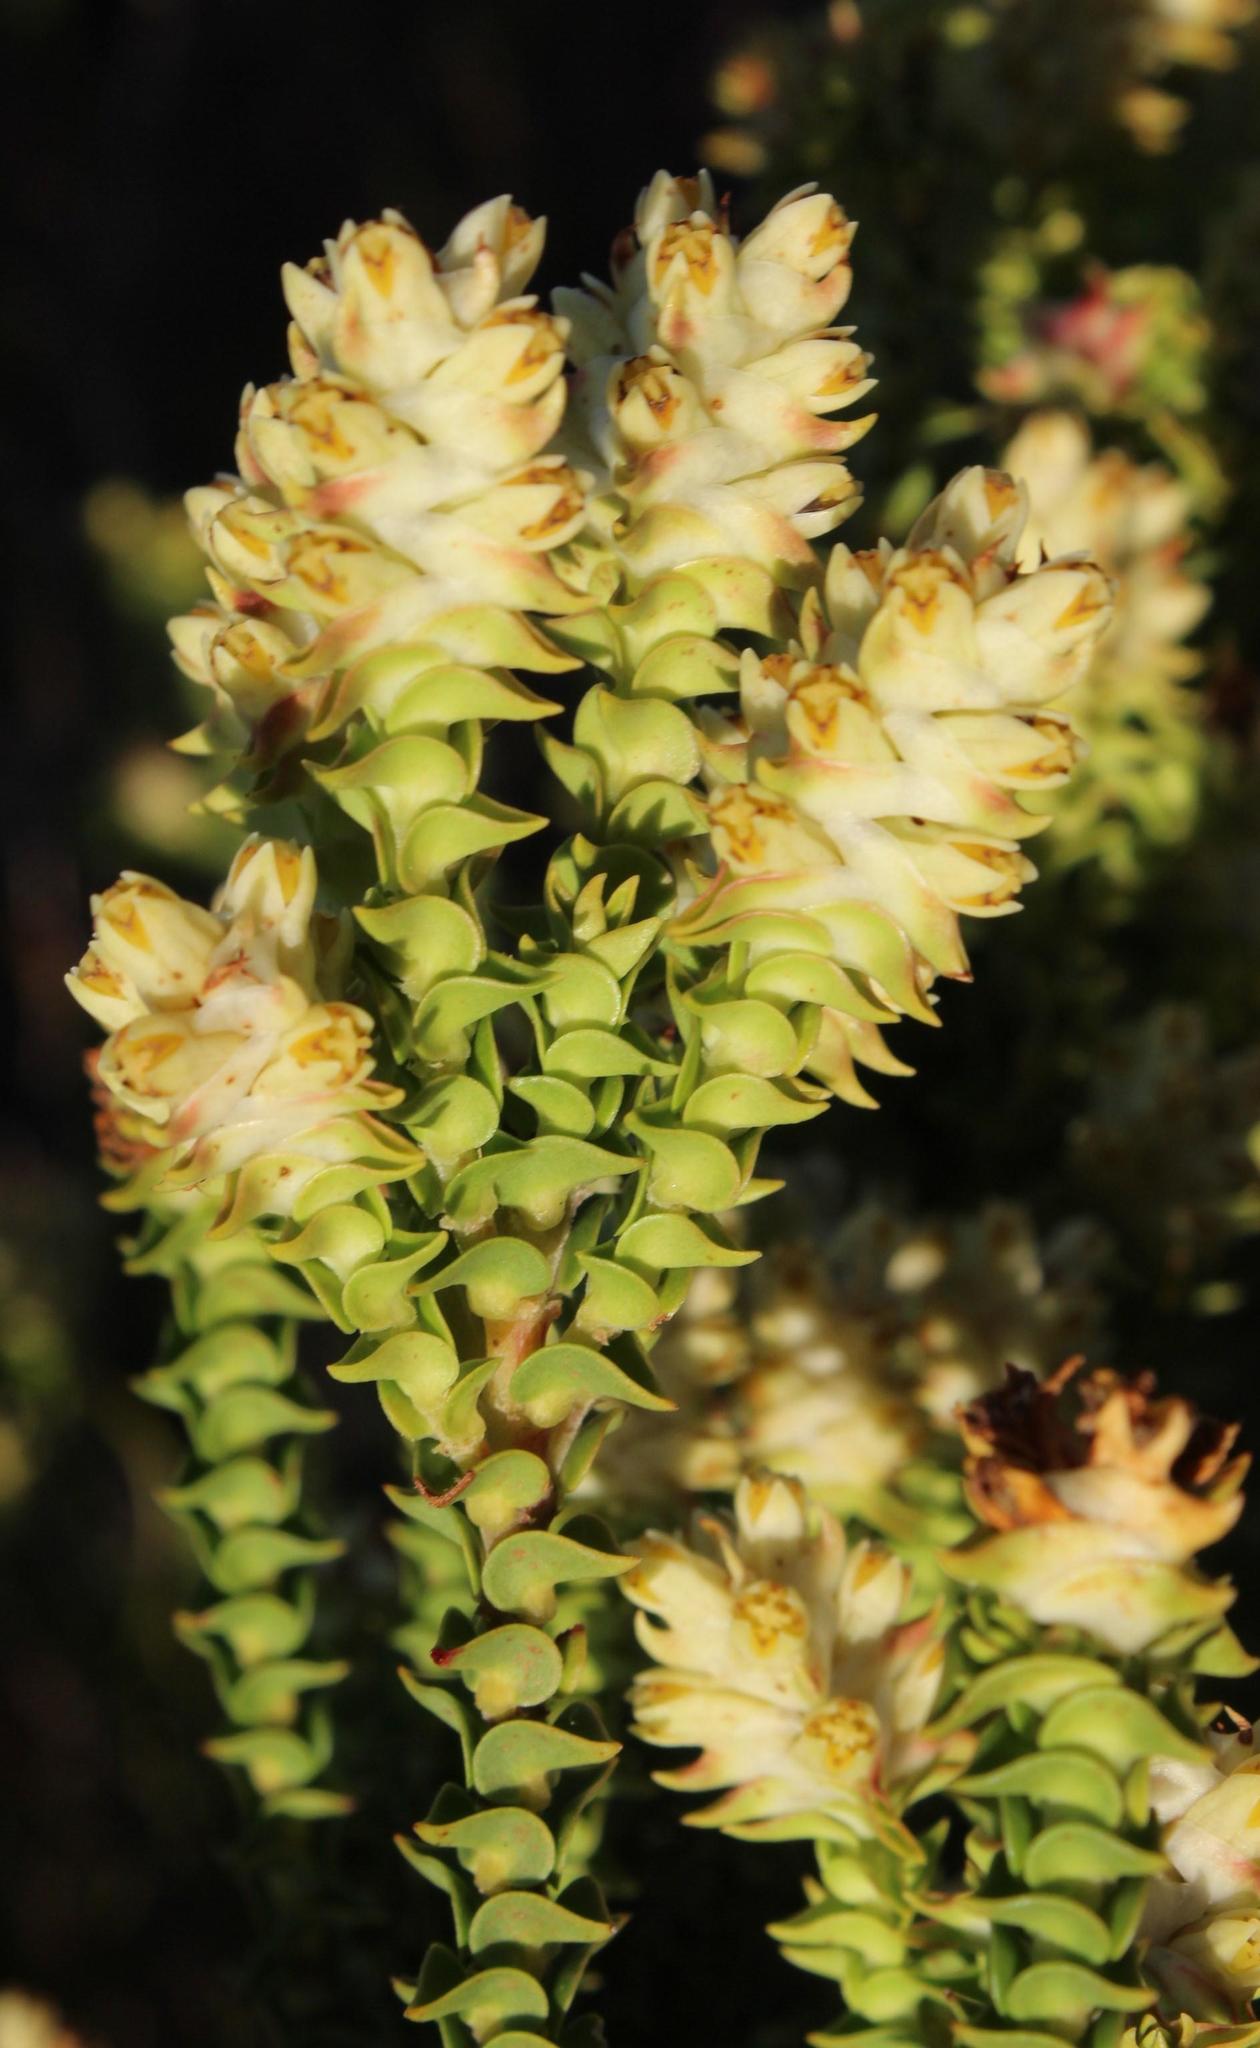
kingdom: Plantae
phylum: Tracheophyta
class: Magnoliopsida
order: Myrtales
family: Penaeaceae
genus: Penaea
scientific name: Penaea mucronata
